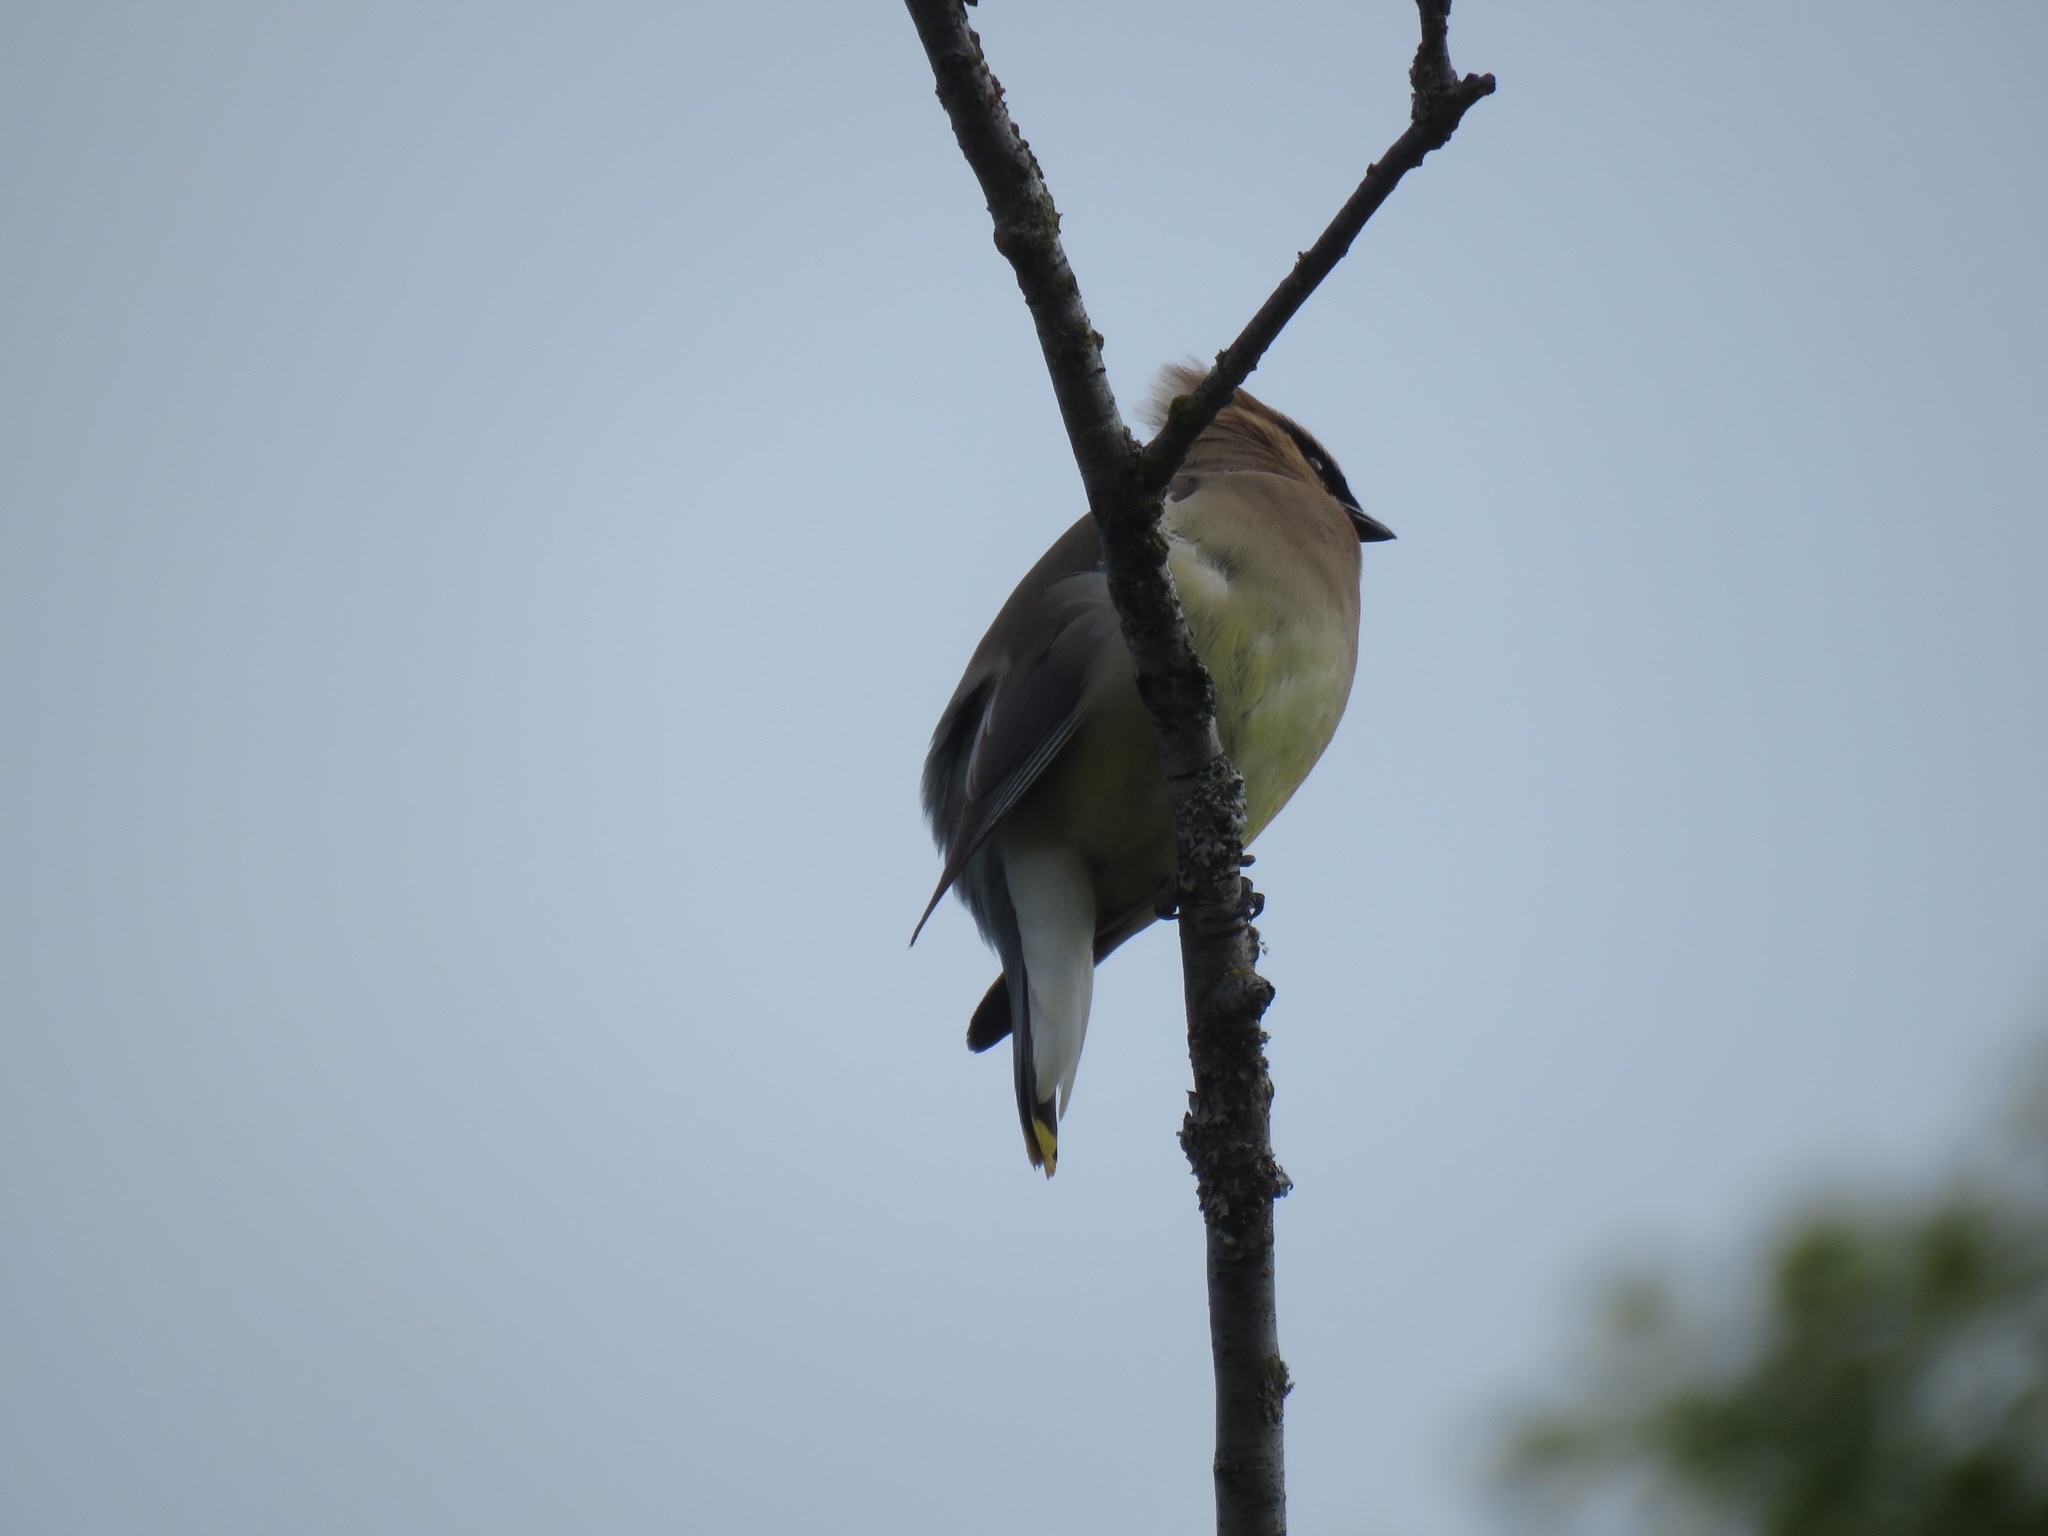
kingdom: Animalia
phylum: Chordata
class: Aves
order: Passeriformes
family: Bombycillidae
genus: Bombycilla
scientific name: Bombycilla cedrorum
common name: Cedar waxwing
